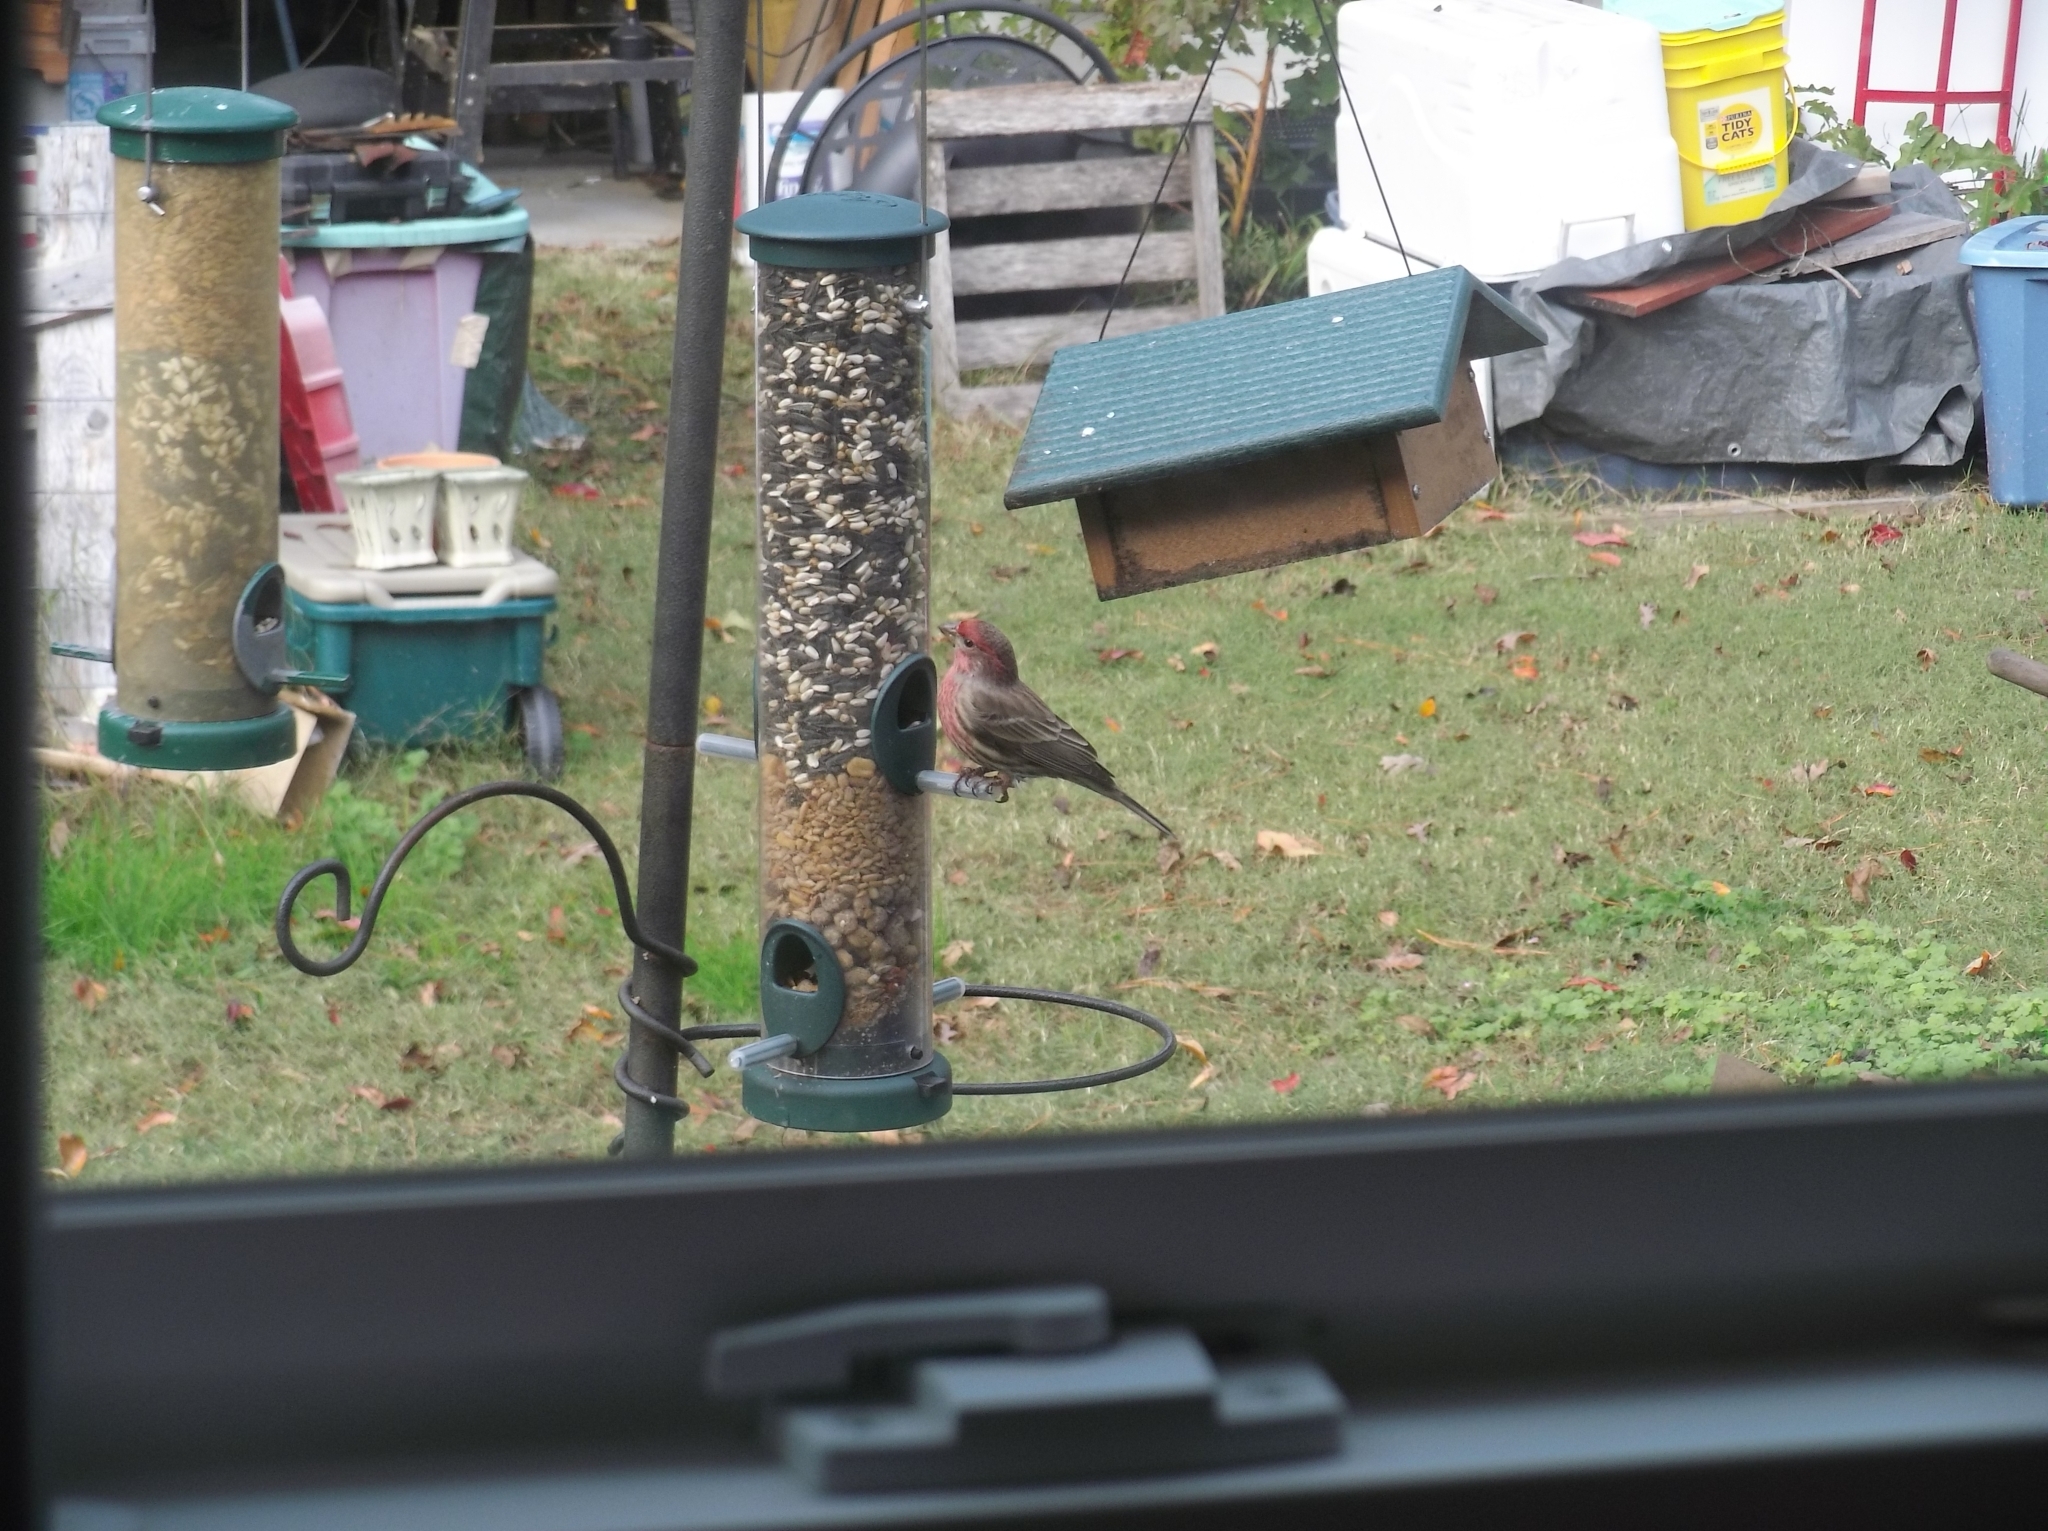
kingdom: Animalia
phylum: Chordata
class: Aves
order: Passeriformes
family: Fringillidae
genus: Haemorhous
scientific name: Haemorhous mexicanus
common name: House finch
